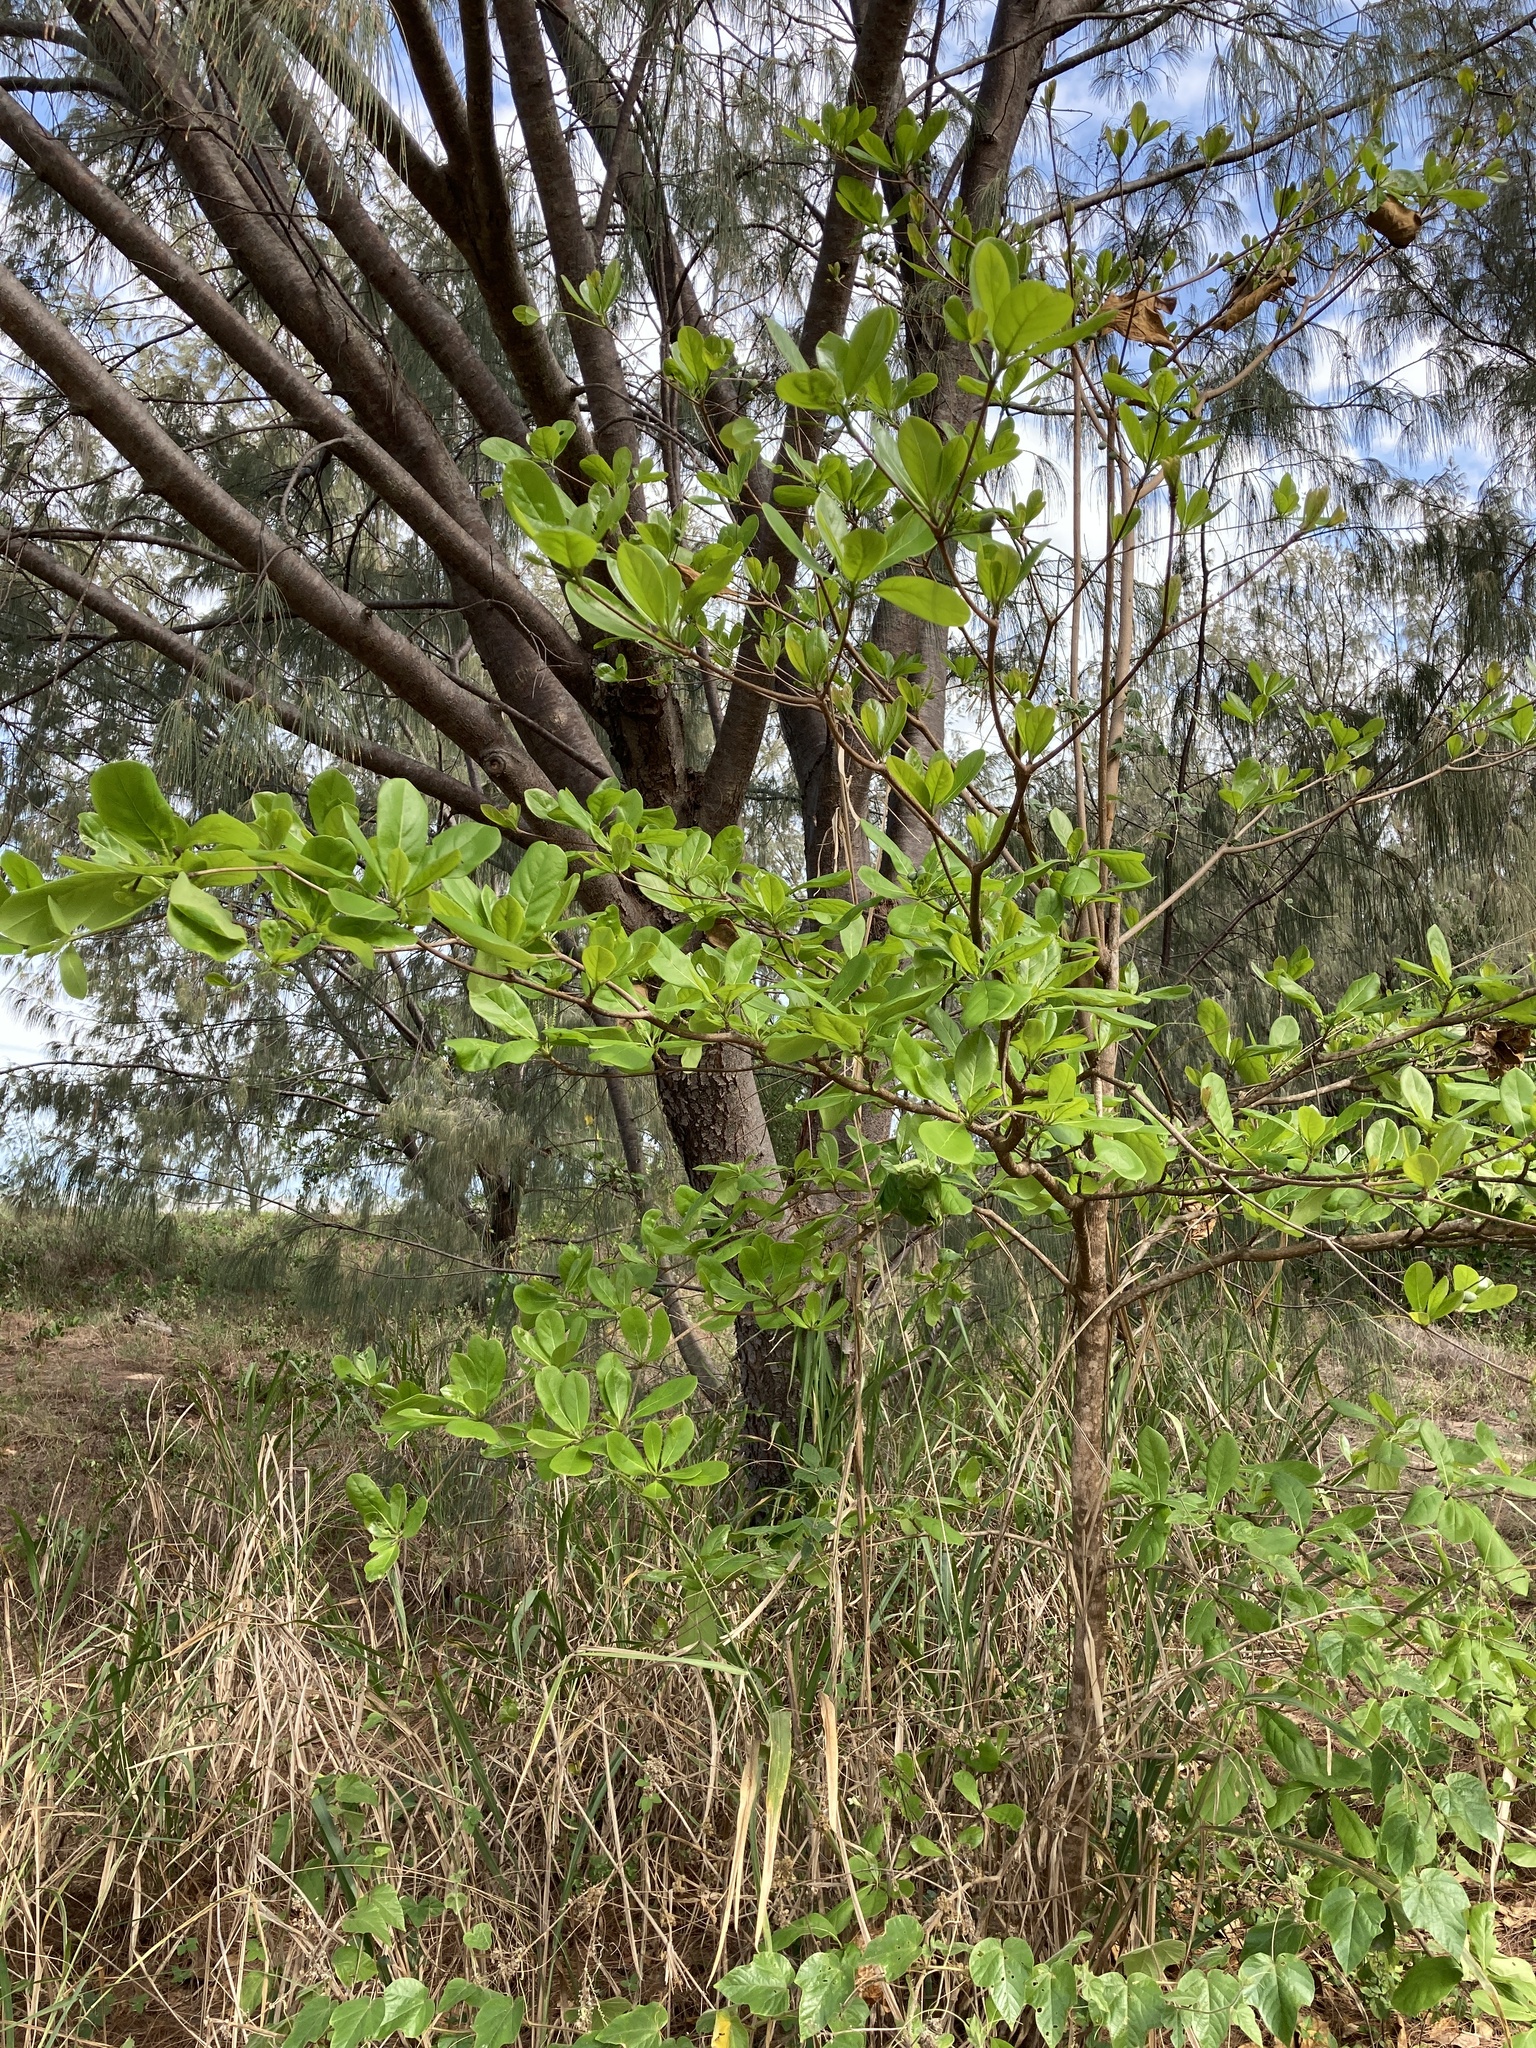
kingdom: Plantae
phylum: Tracheophyta
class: Magnoliopsida
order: Myrtales
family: Combretaceae
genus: Terminalia
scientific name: Terminalia arenicola
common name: Brown damson
